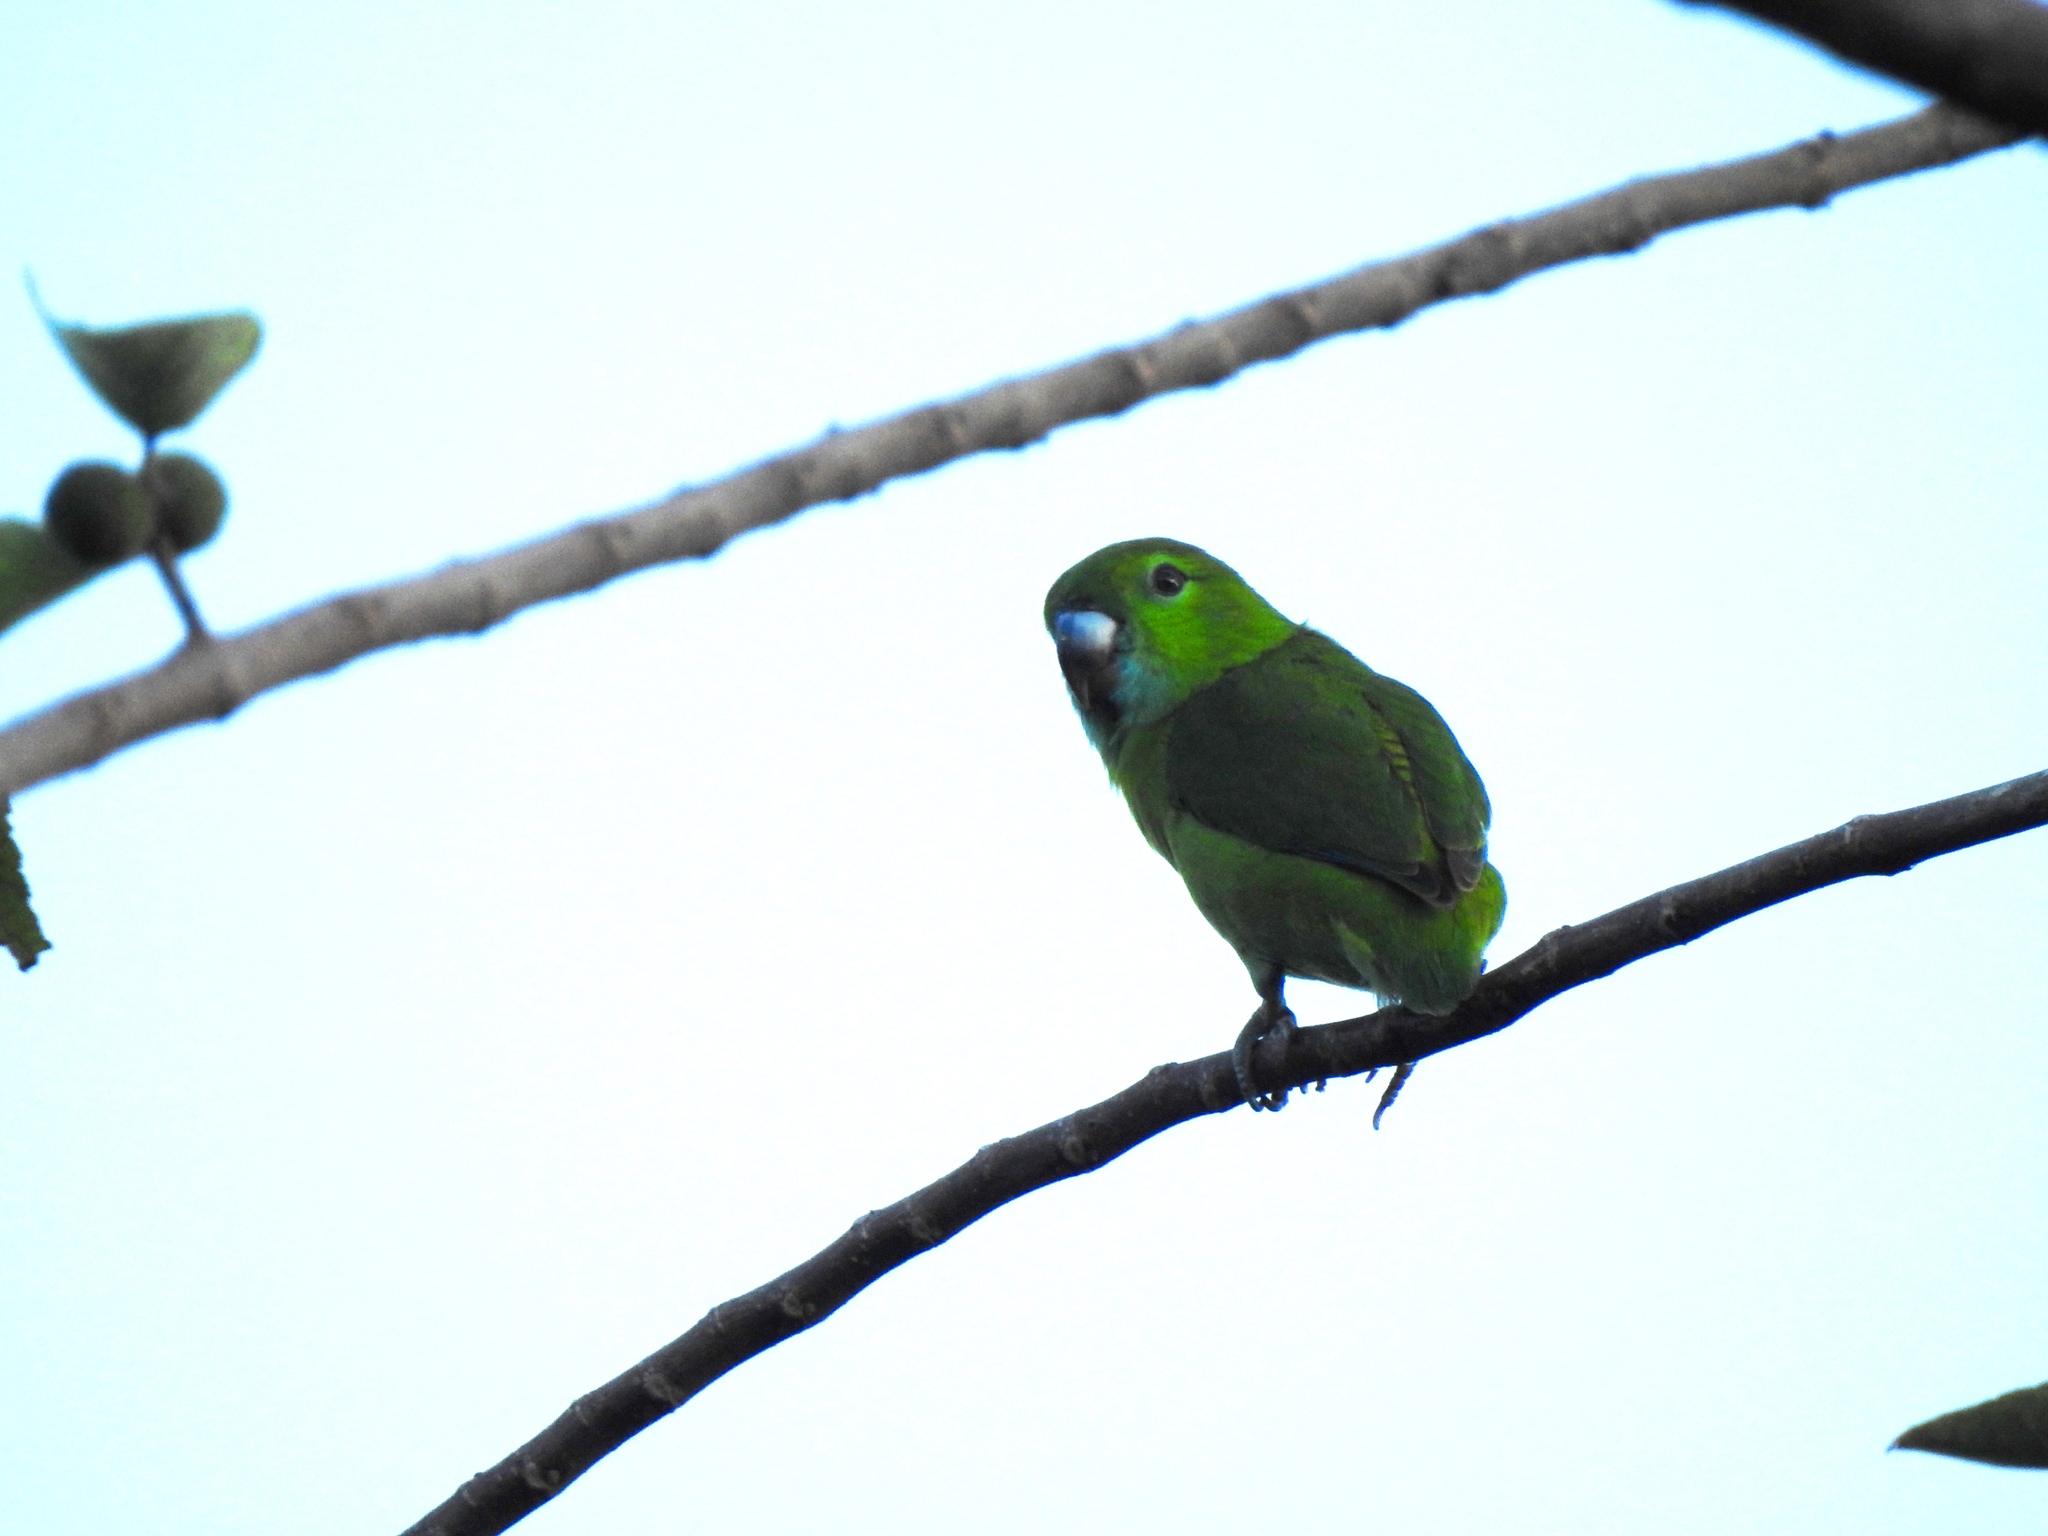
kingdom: Animalia
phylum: Chordata
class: Aves
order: Psittaciformes
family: Psittacidae
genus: Bolbopsittacus
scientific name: Bolbopsittacus lunulatus
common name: Guaiabero
